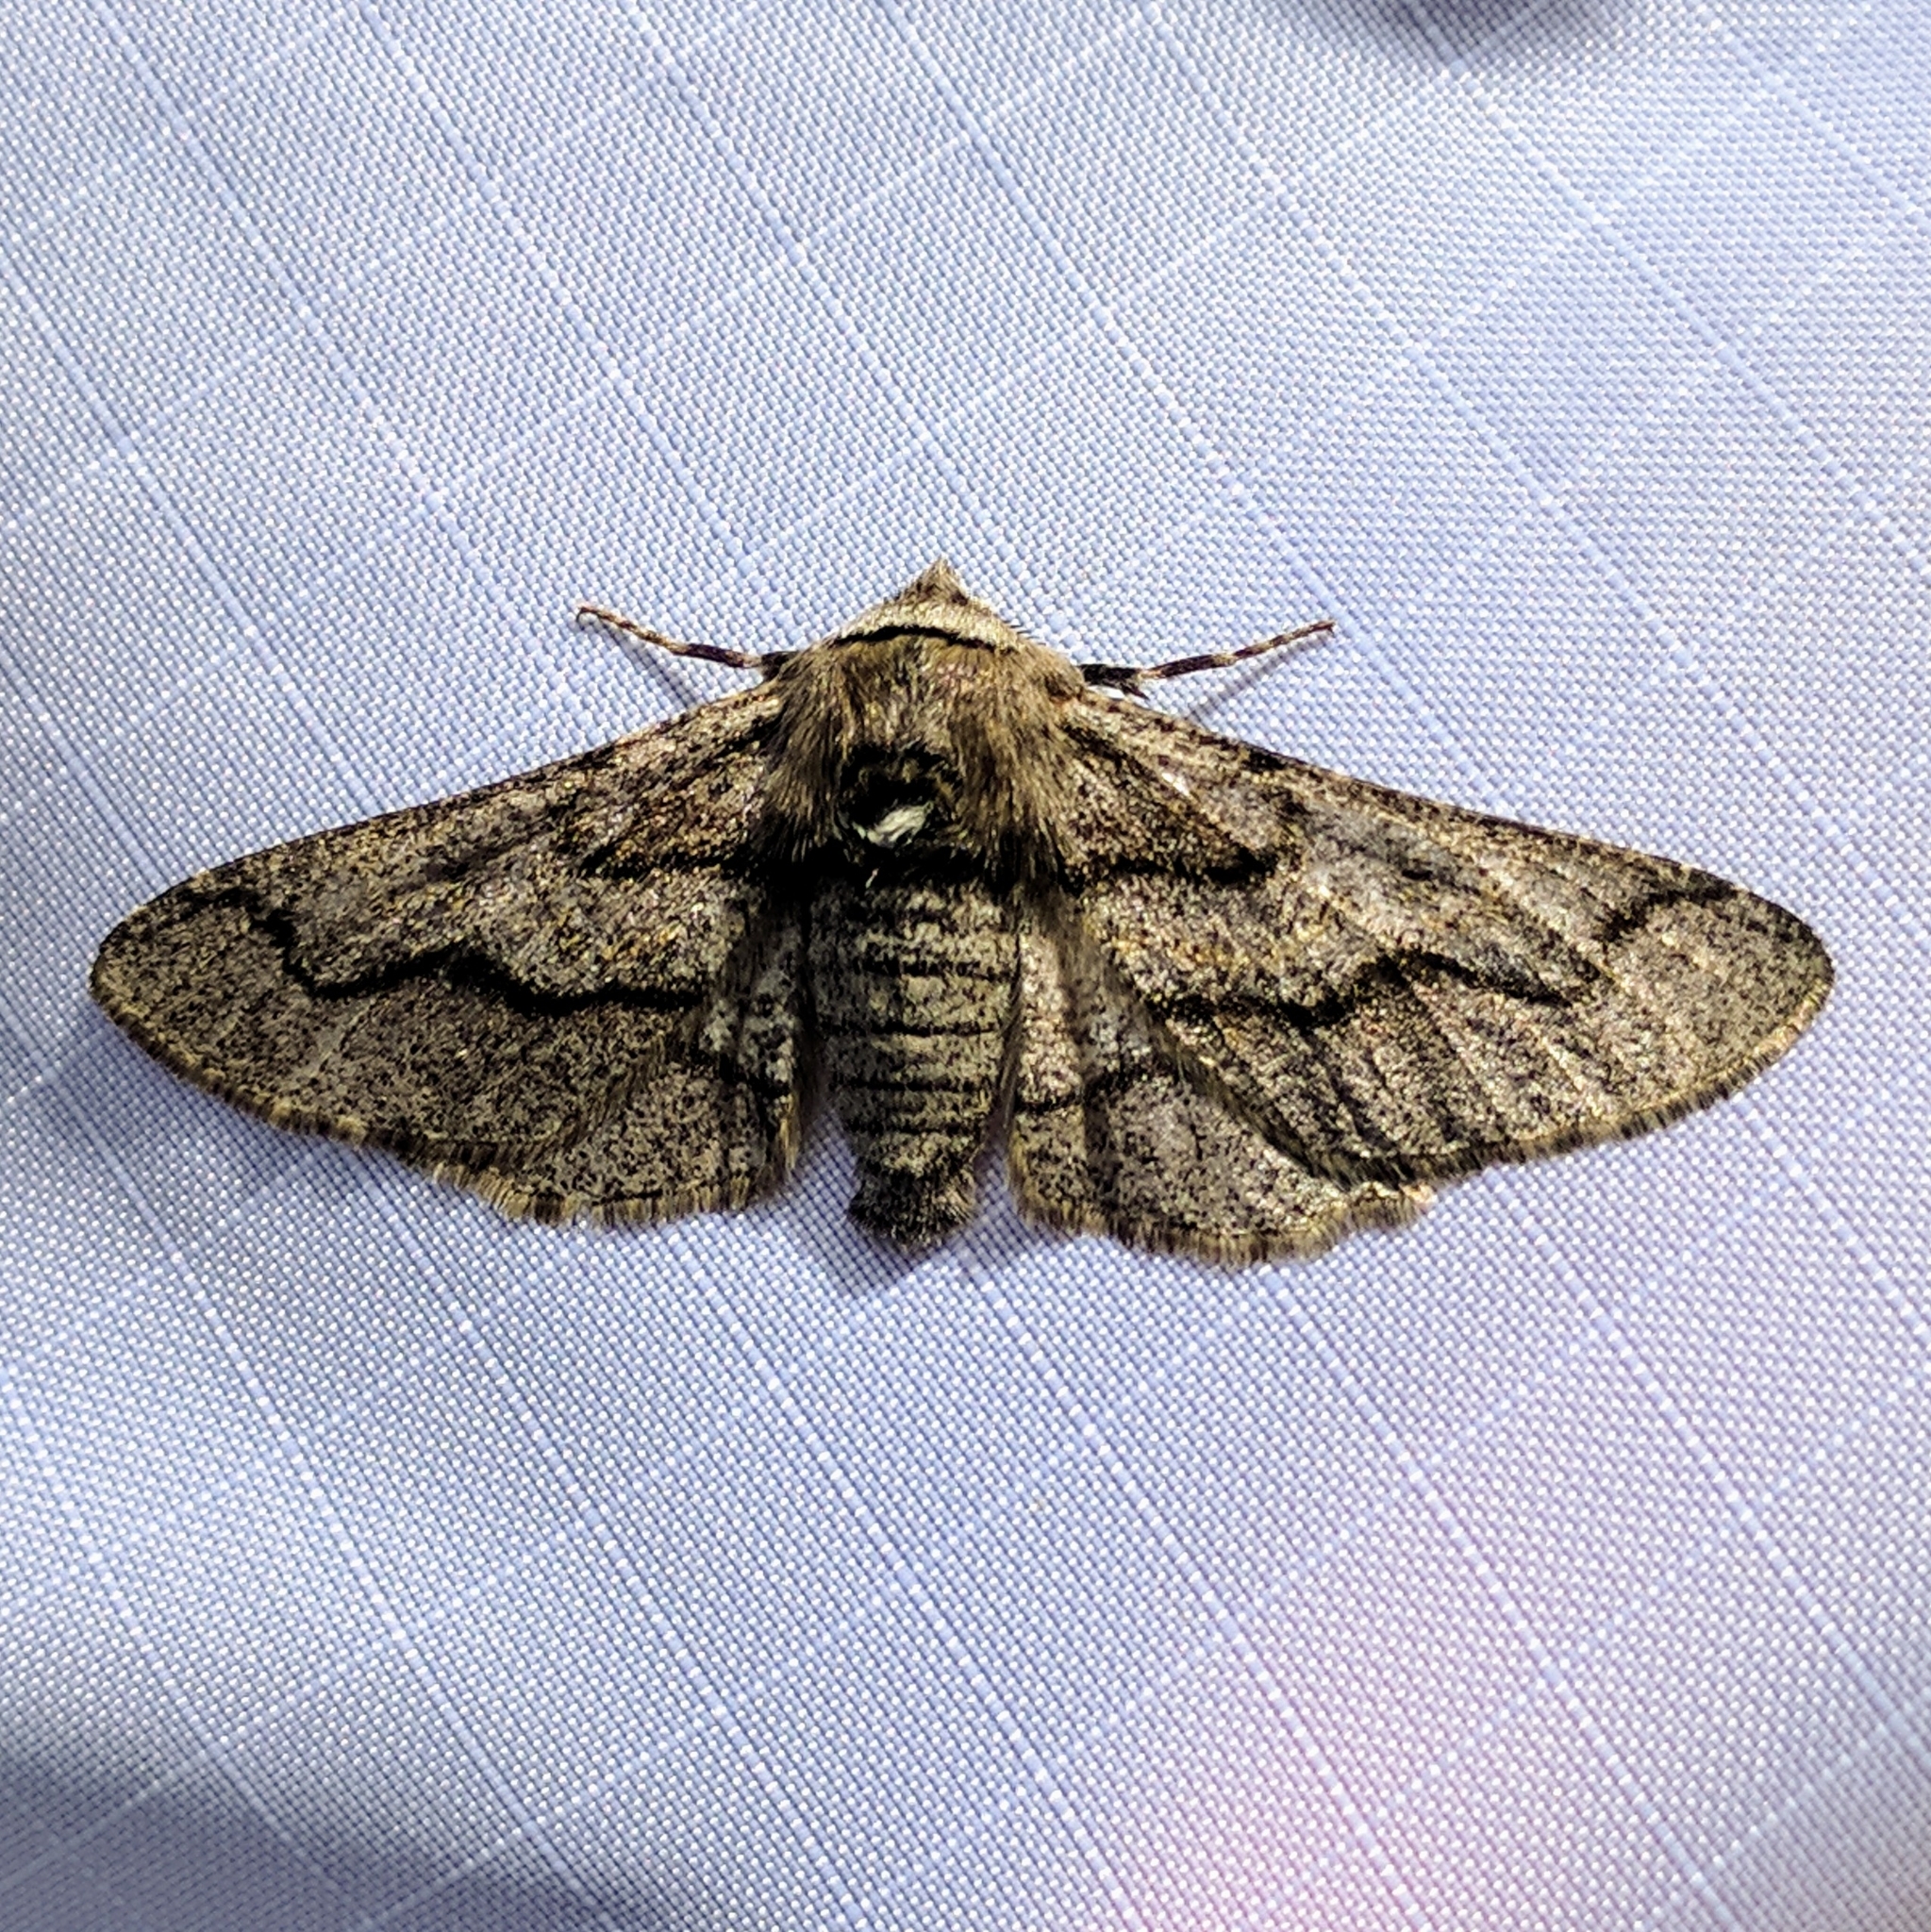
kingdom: Animalia
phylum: Arthropoda
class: Insecta
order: Lepidoptera
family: Geometridae
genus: Biston
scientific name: Biston
